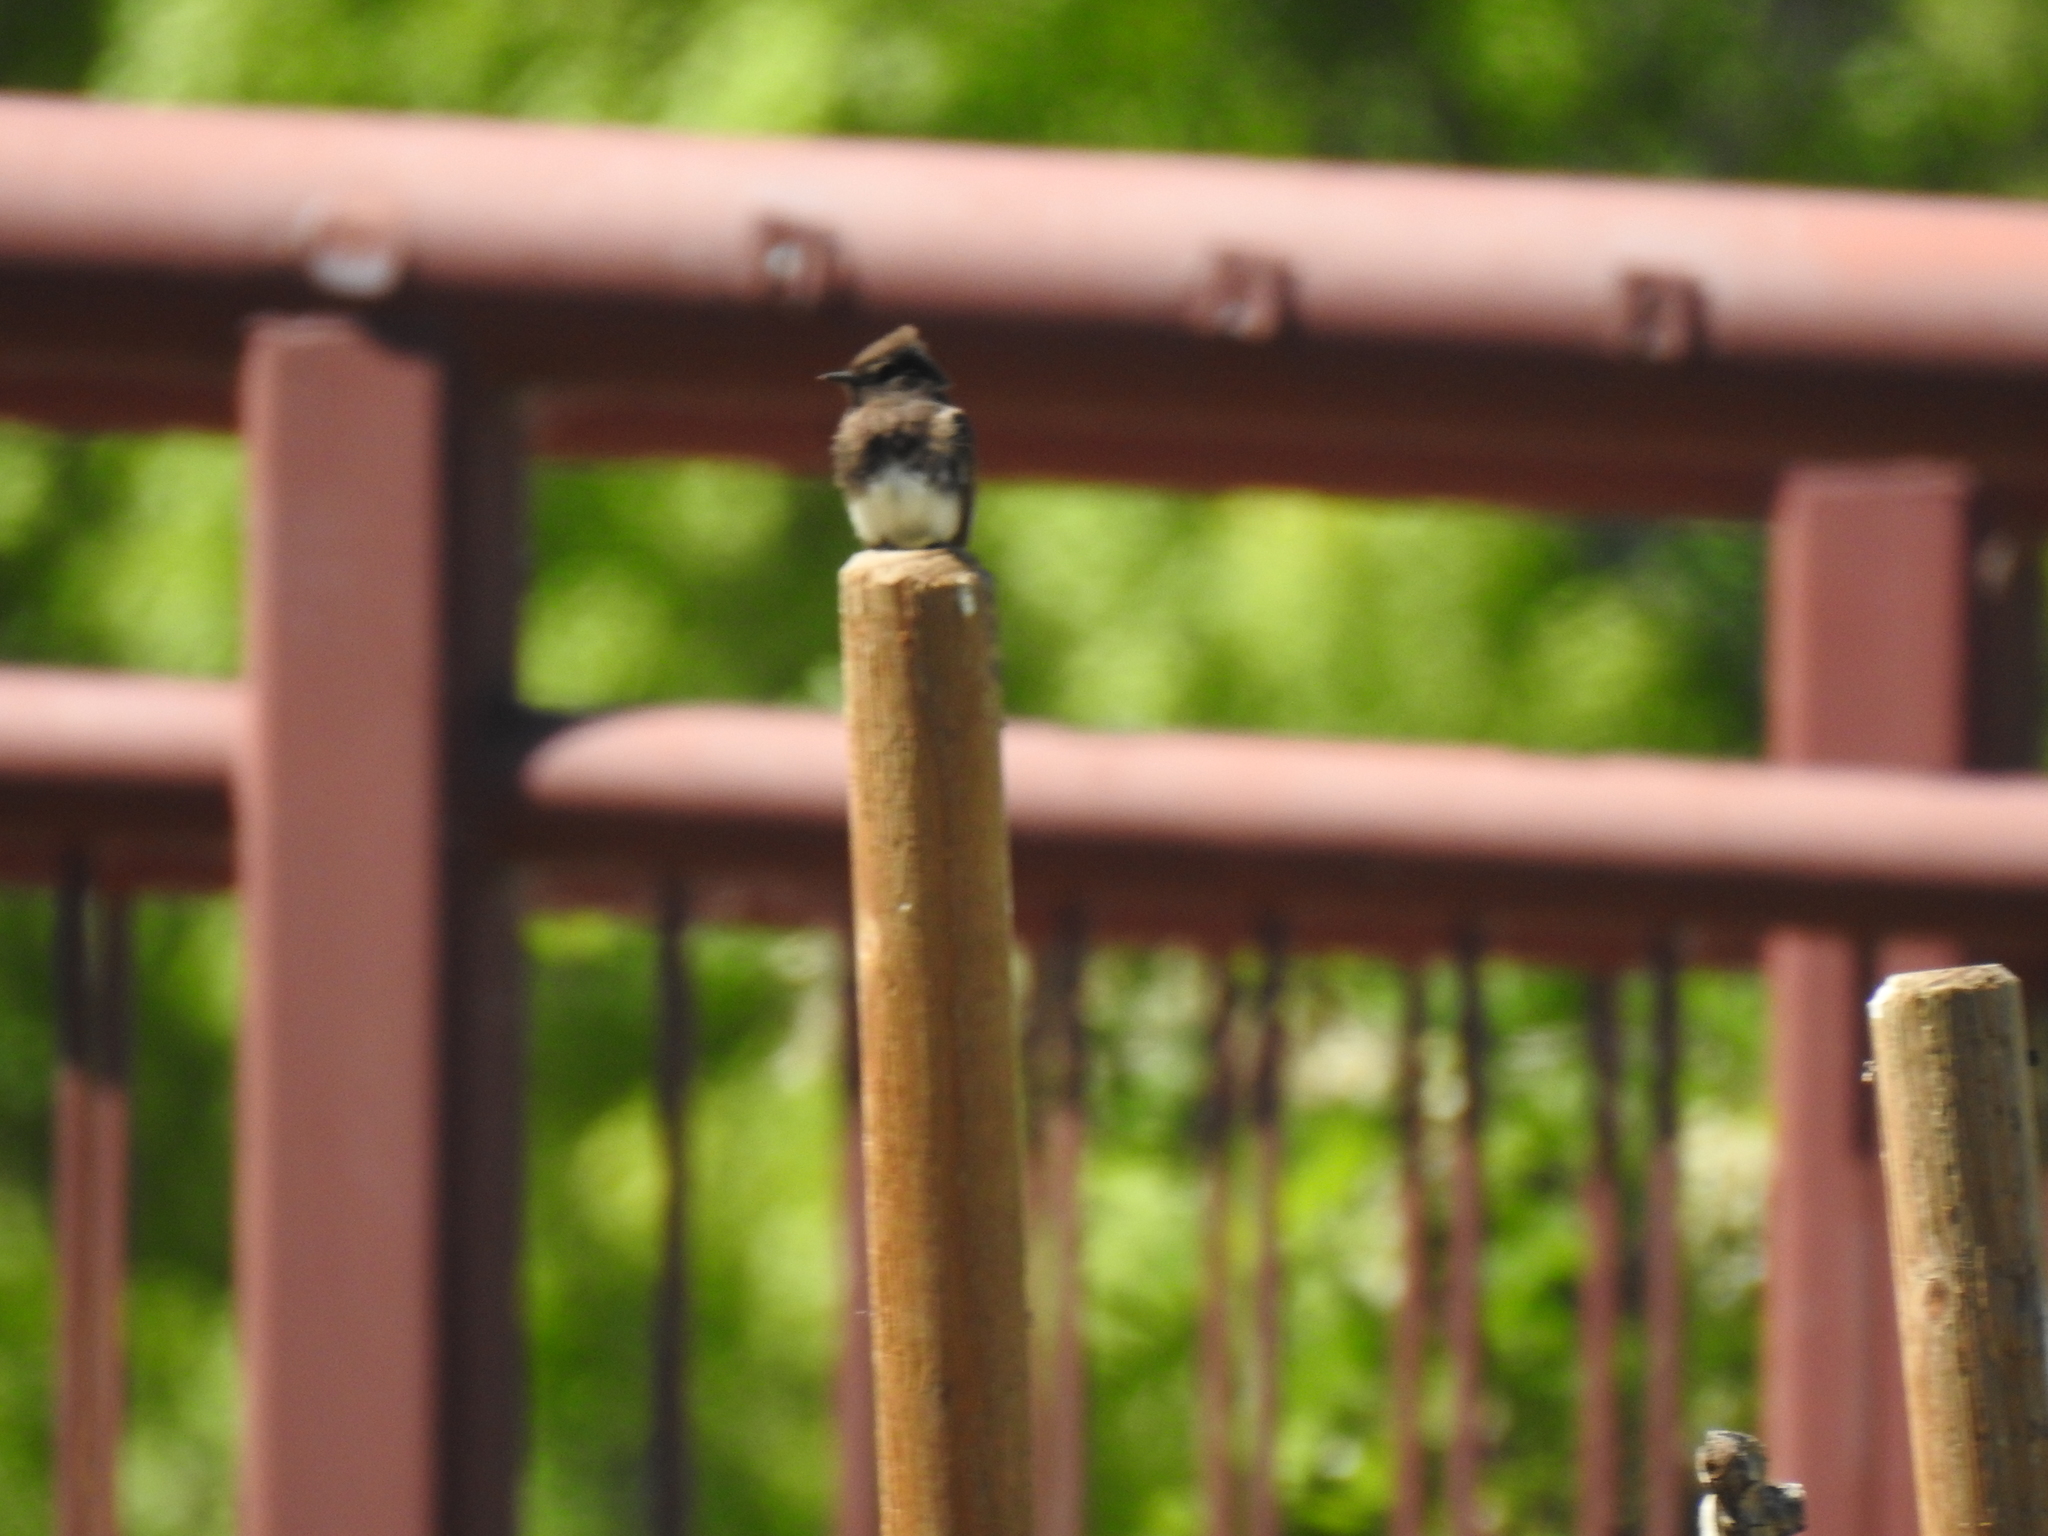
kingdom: Animalia
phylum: Chordata
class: Aves
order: Passeriformes
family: Tyrannidae
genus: Sayornis
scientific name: Sayornis nigricans
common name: Black phoebe
